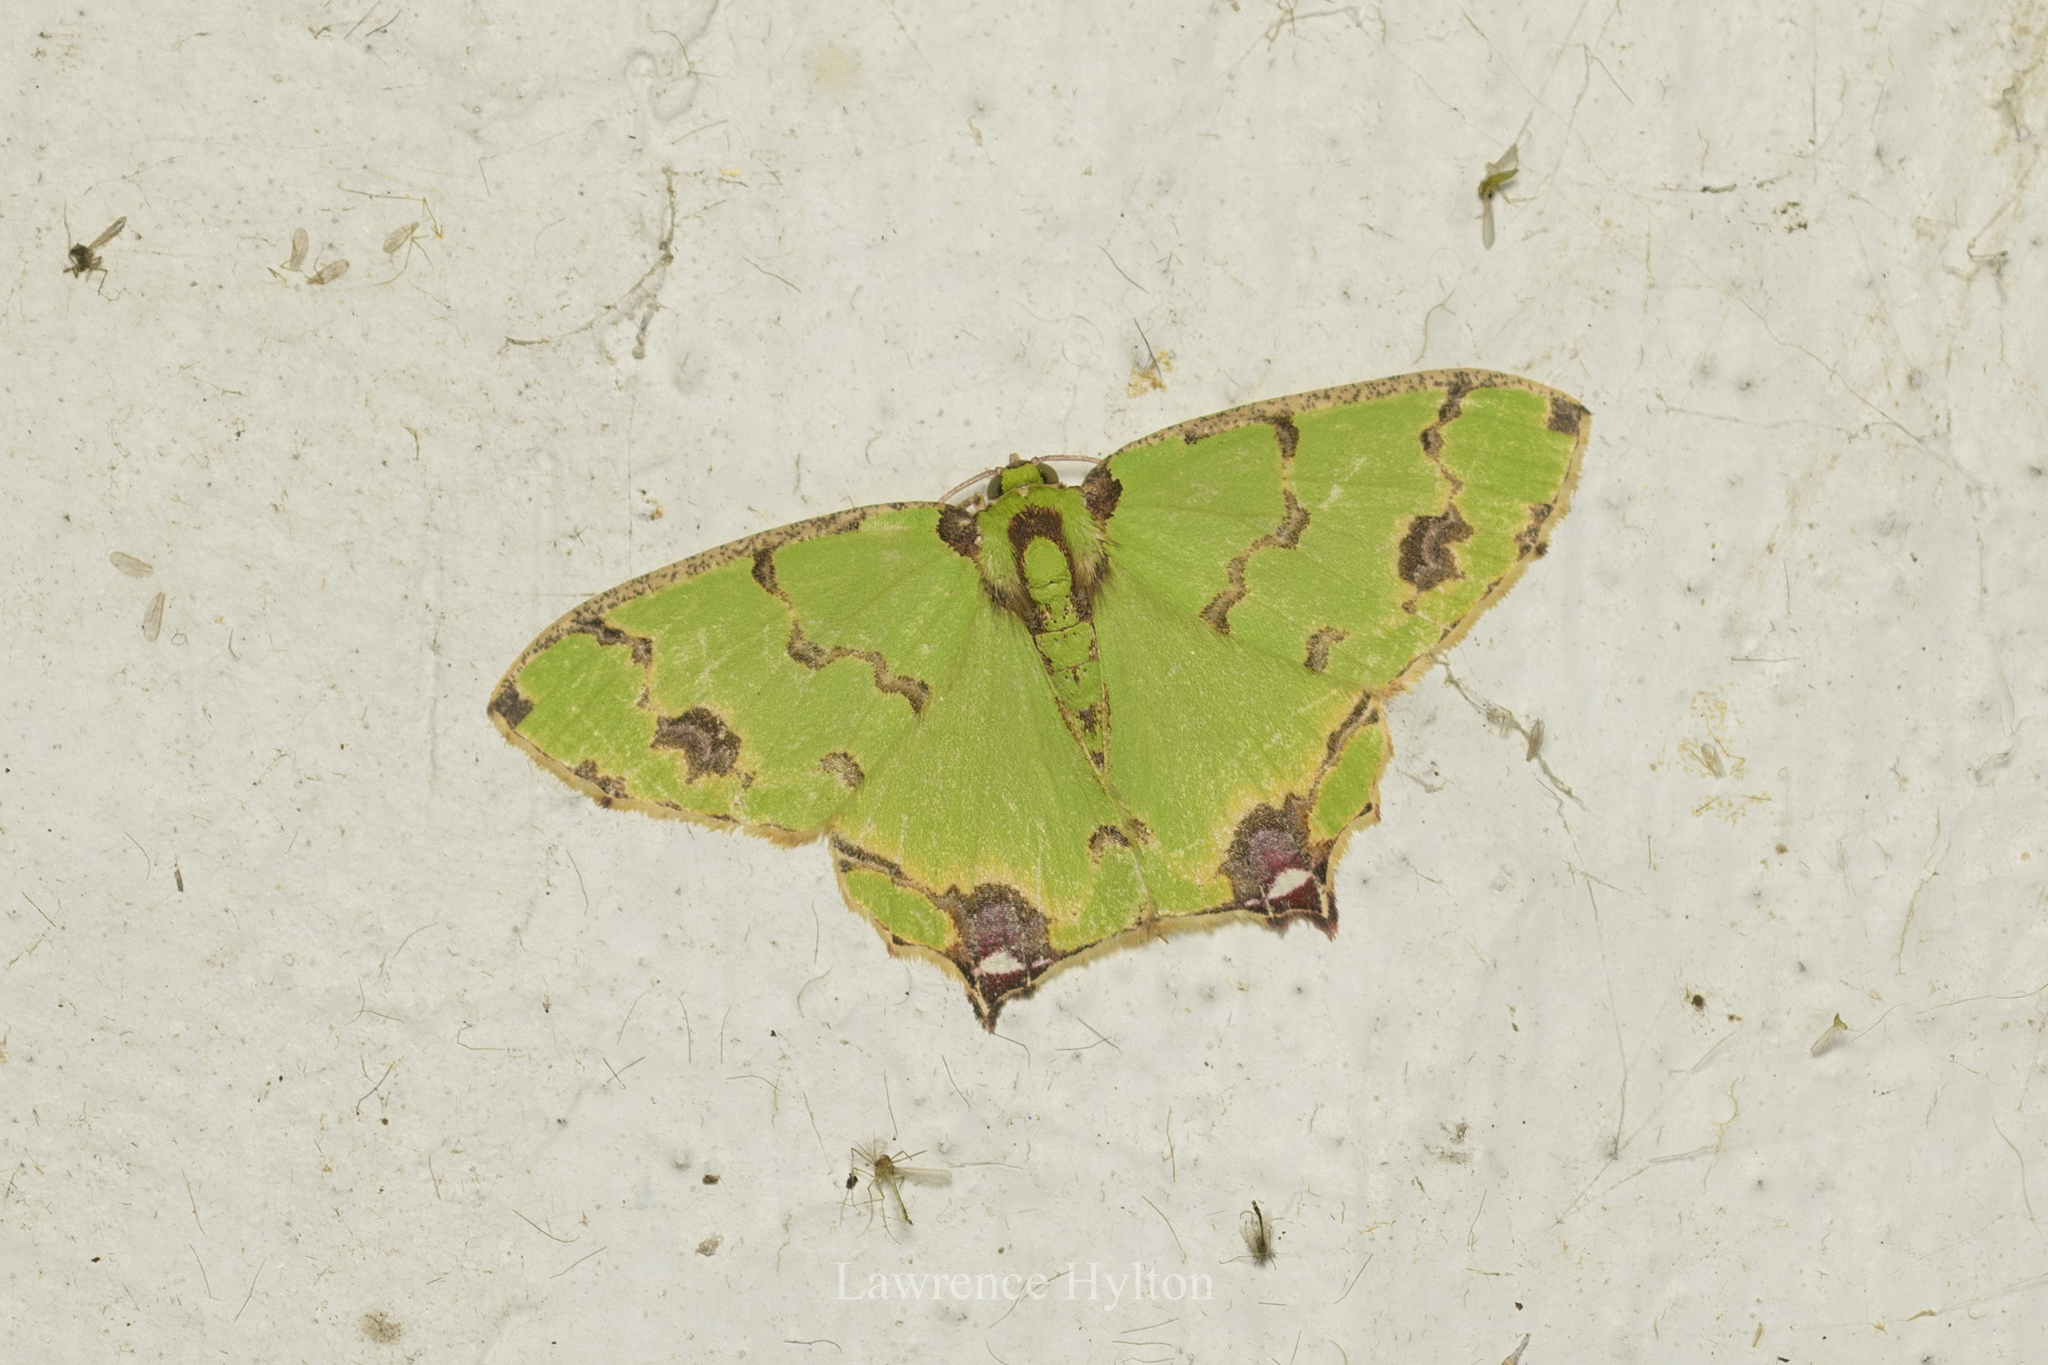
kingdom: Animalia
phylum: Arthropoda
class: Insecta
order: Lepidoptera
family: Geometridae
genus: Agathia
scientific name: Agathia lycaenaria
